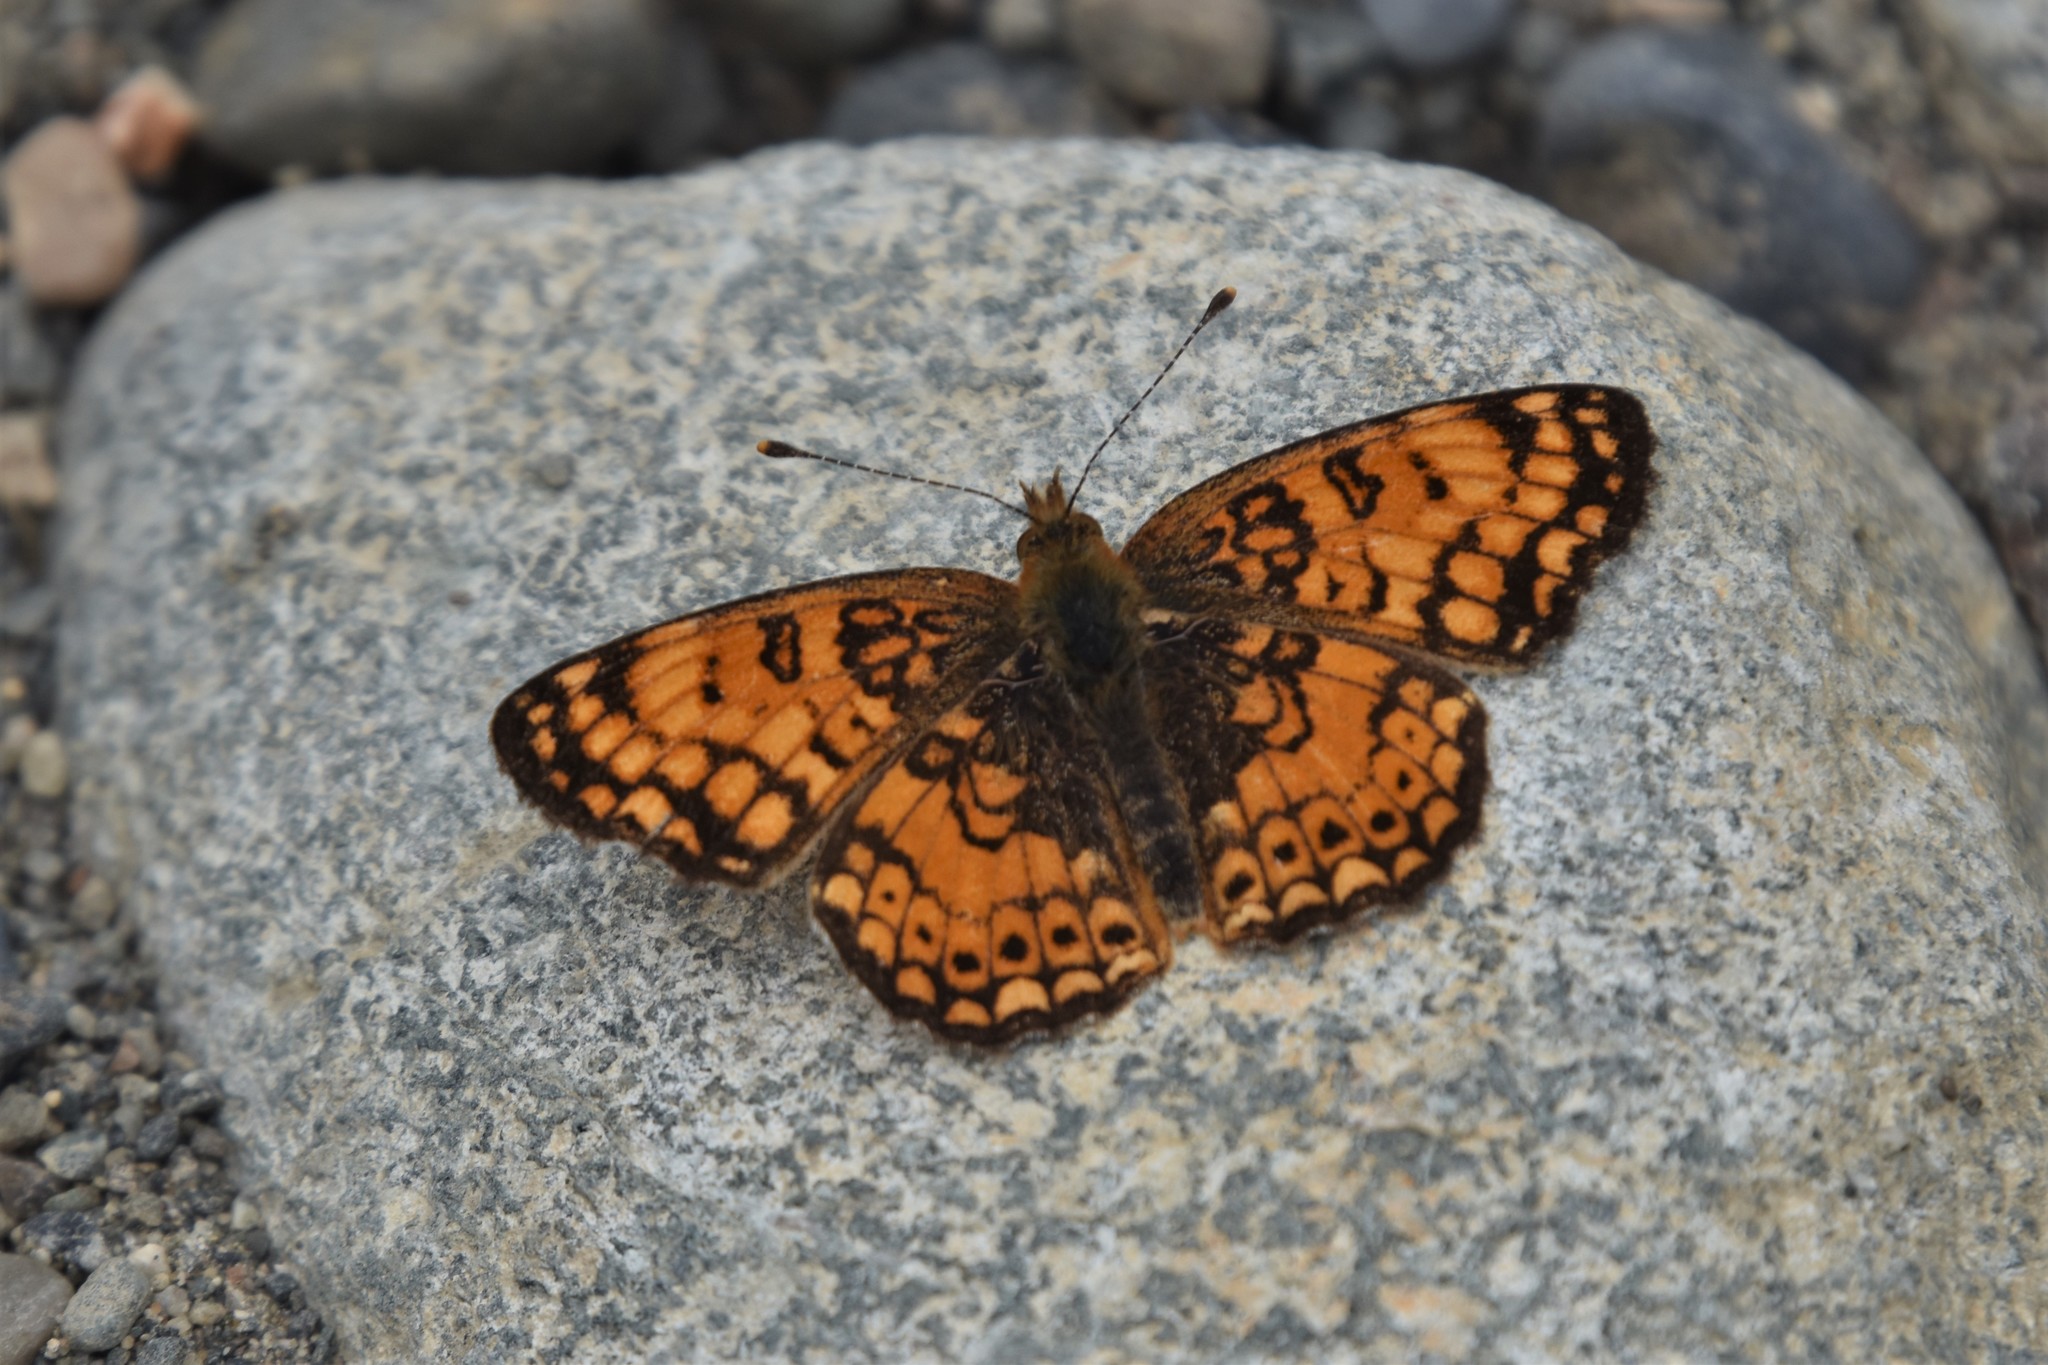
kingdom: Animalia
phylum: Arthropoda
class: Insecta
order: Lepidoptera
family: Nymphalidae
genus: Eresia
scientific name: Eresia aveyrona
